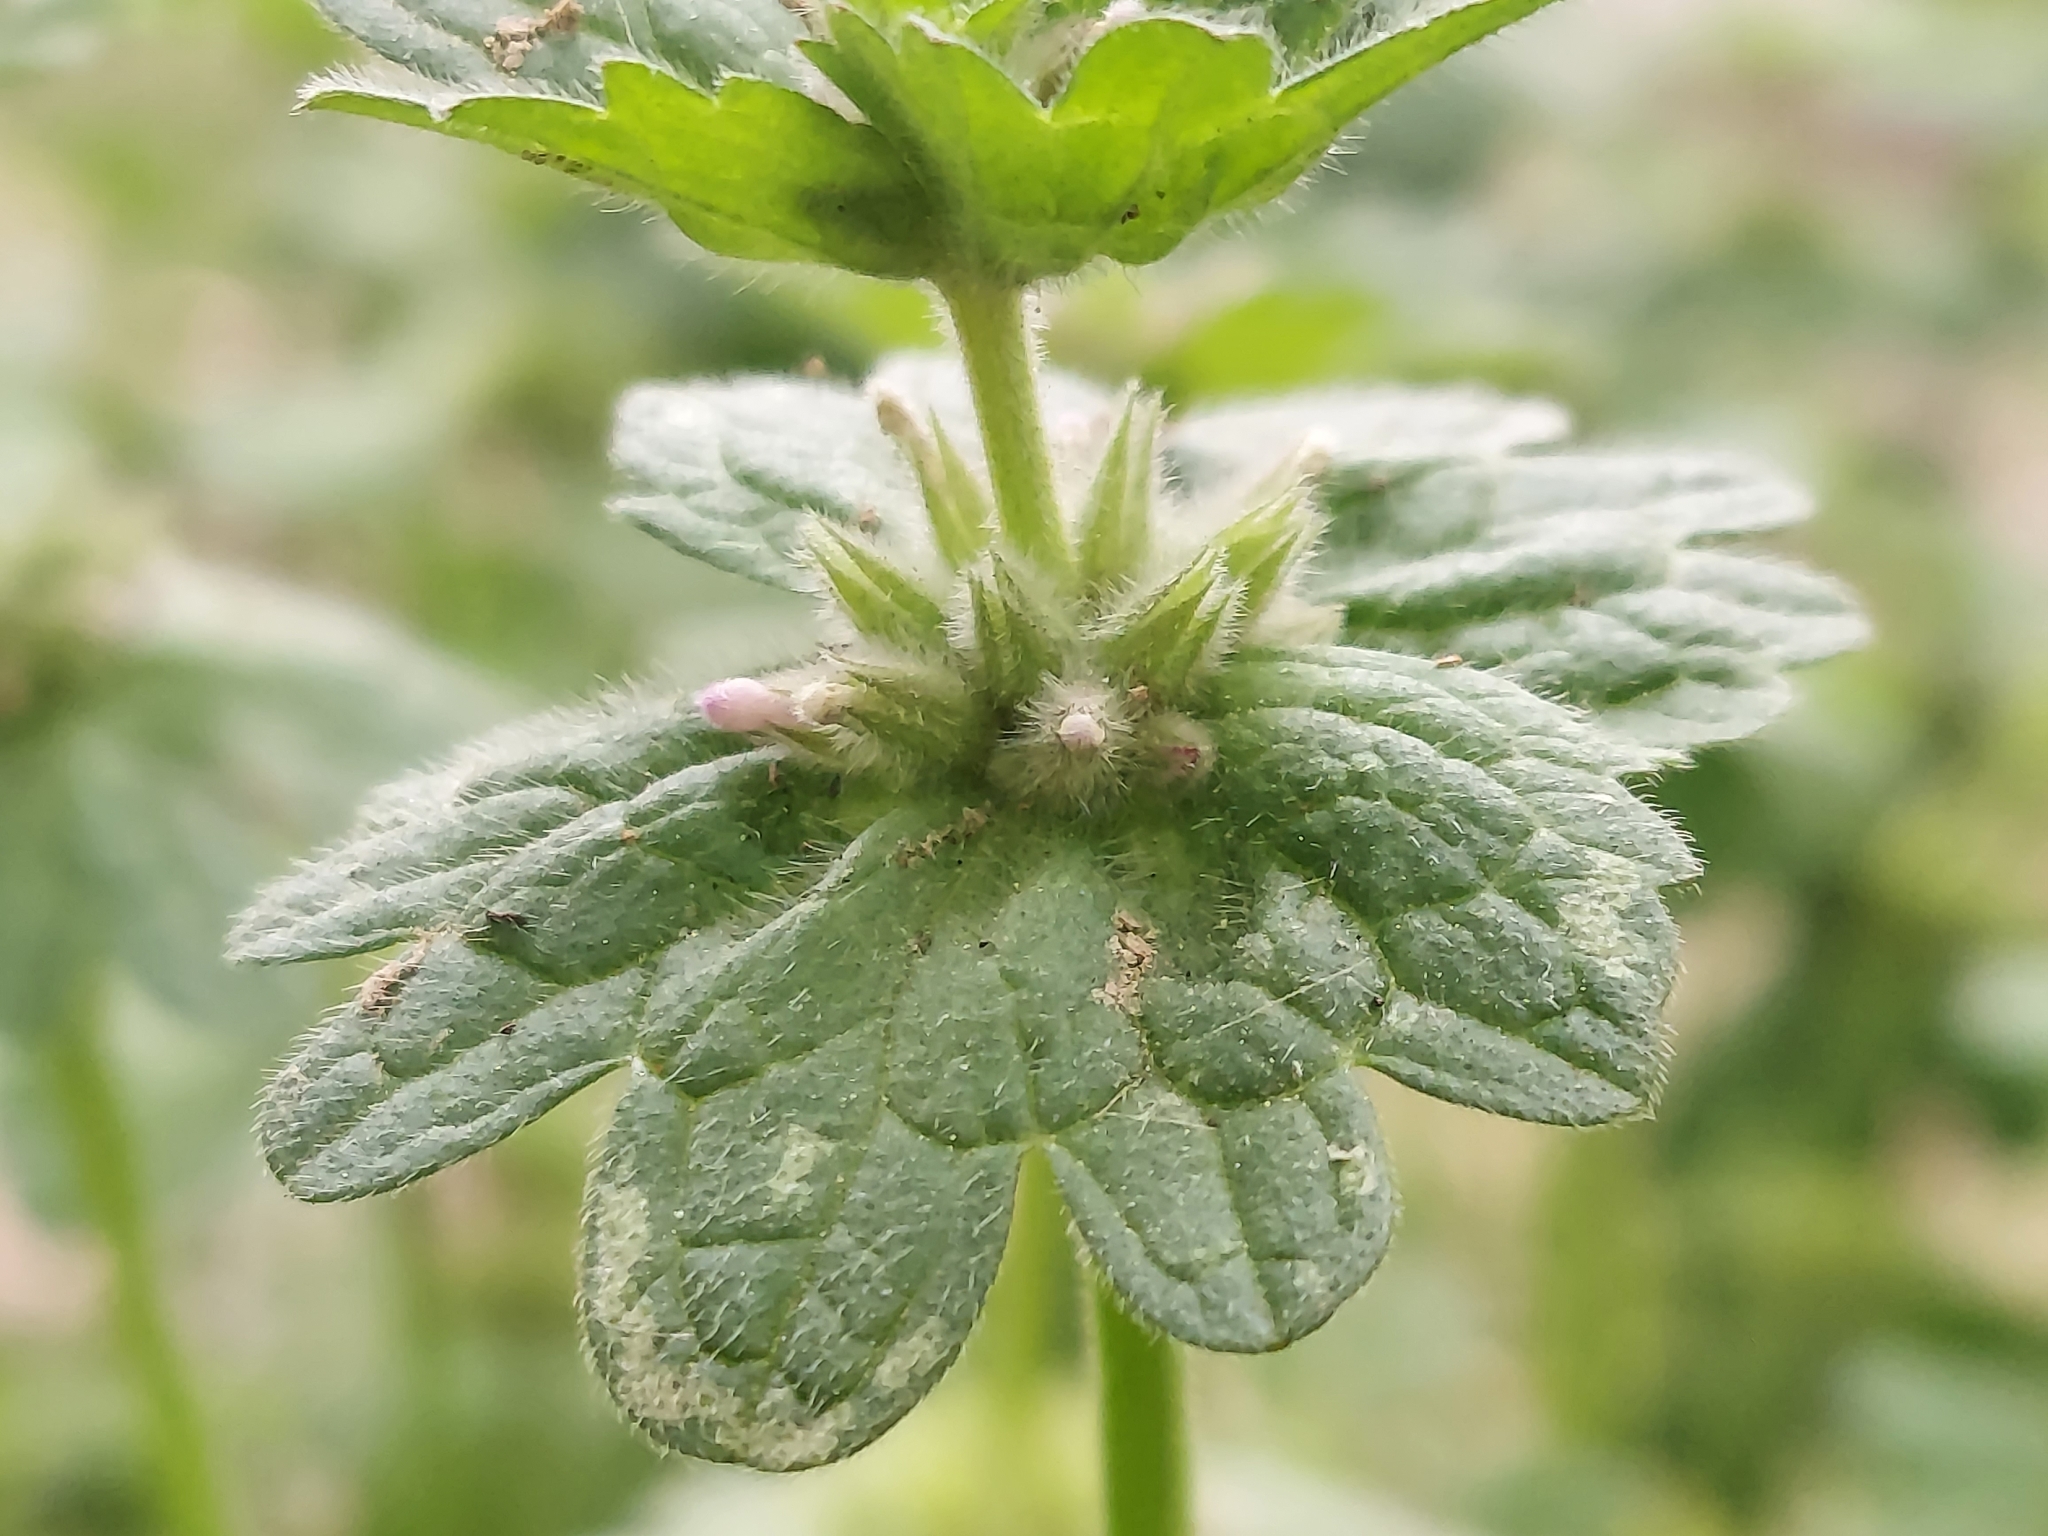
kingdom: Plantae
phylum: Tracheophyta
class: Magnoliopsida
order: Lamiales
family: Lamiaceae
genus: Lamium
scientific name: Lamium amplexicaule
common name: Henbit dead-nettle
